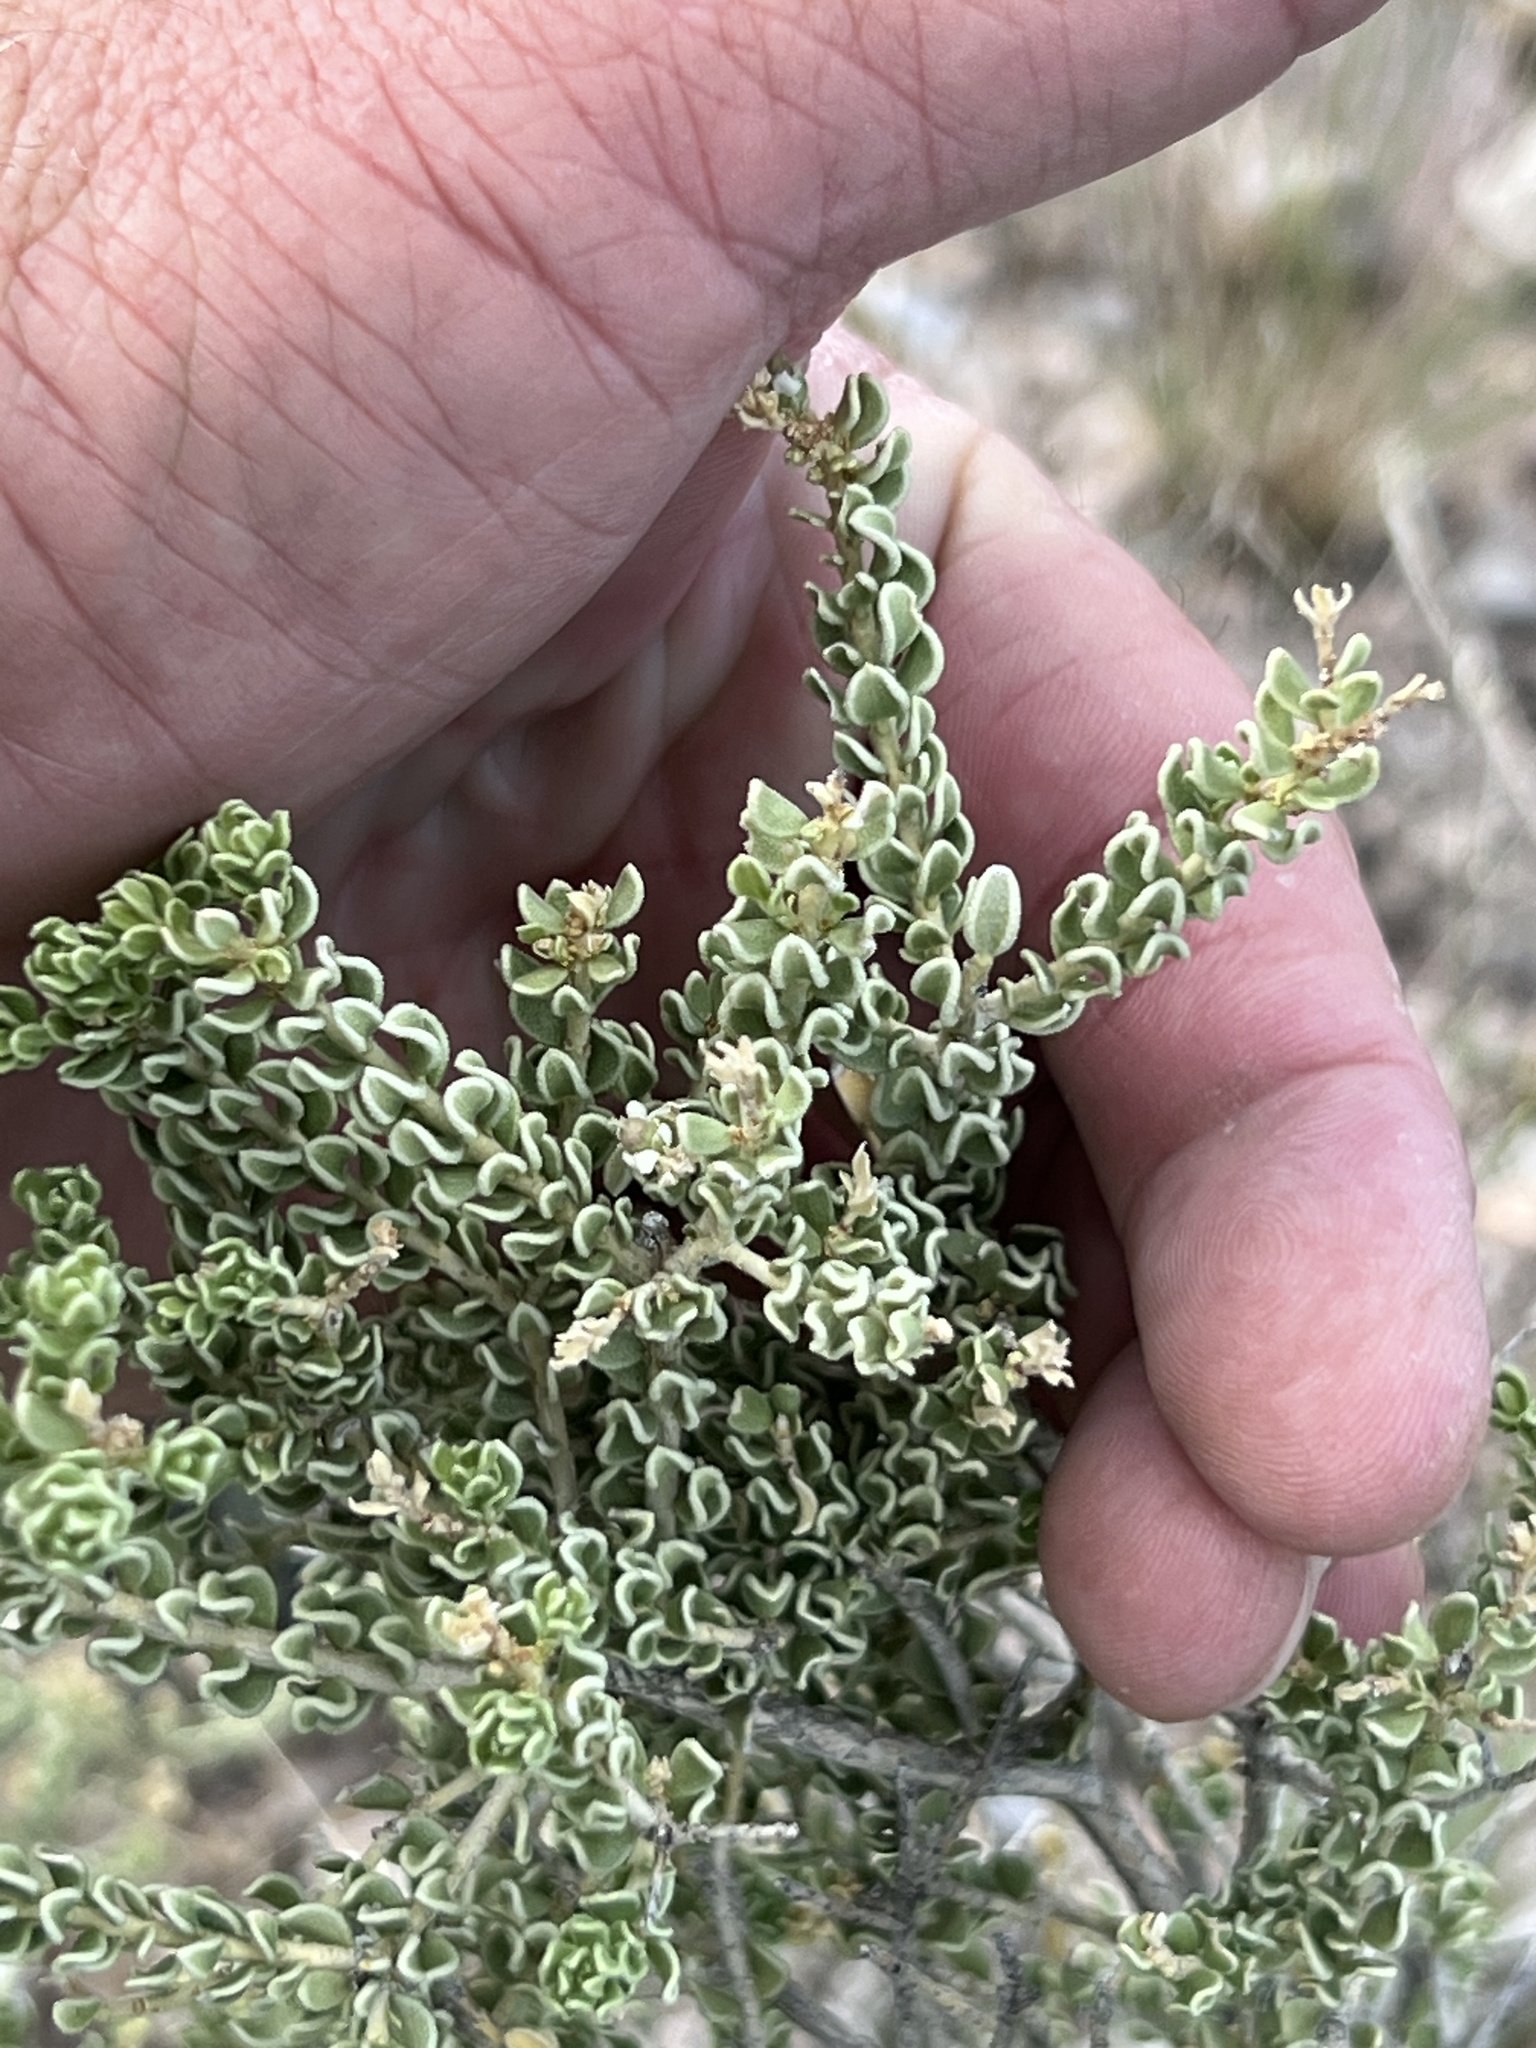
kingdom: Plantae
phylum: Tracheophyta
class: Magnoliopsida
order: Celastrales
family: Celastraceae
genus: Mortonia
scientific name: Mortonia scabrella
